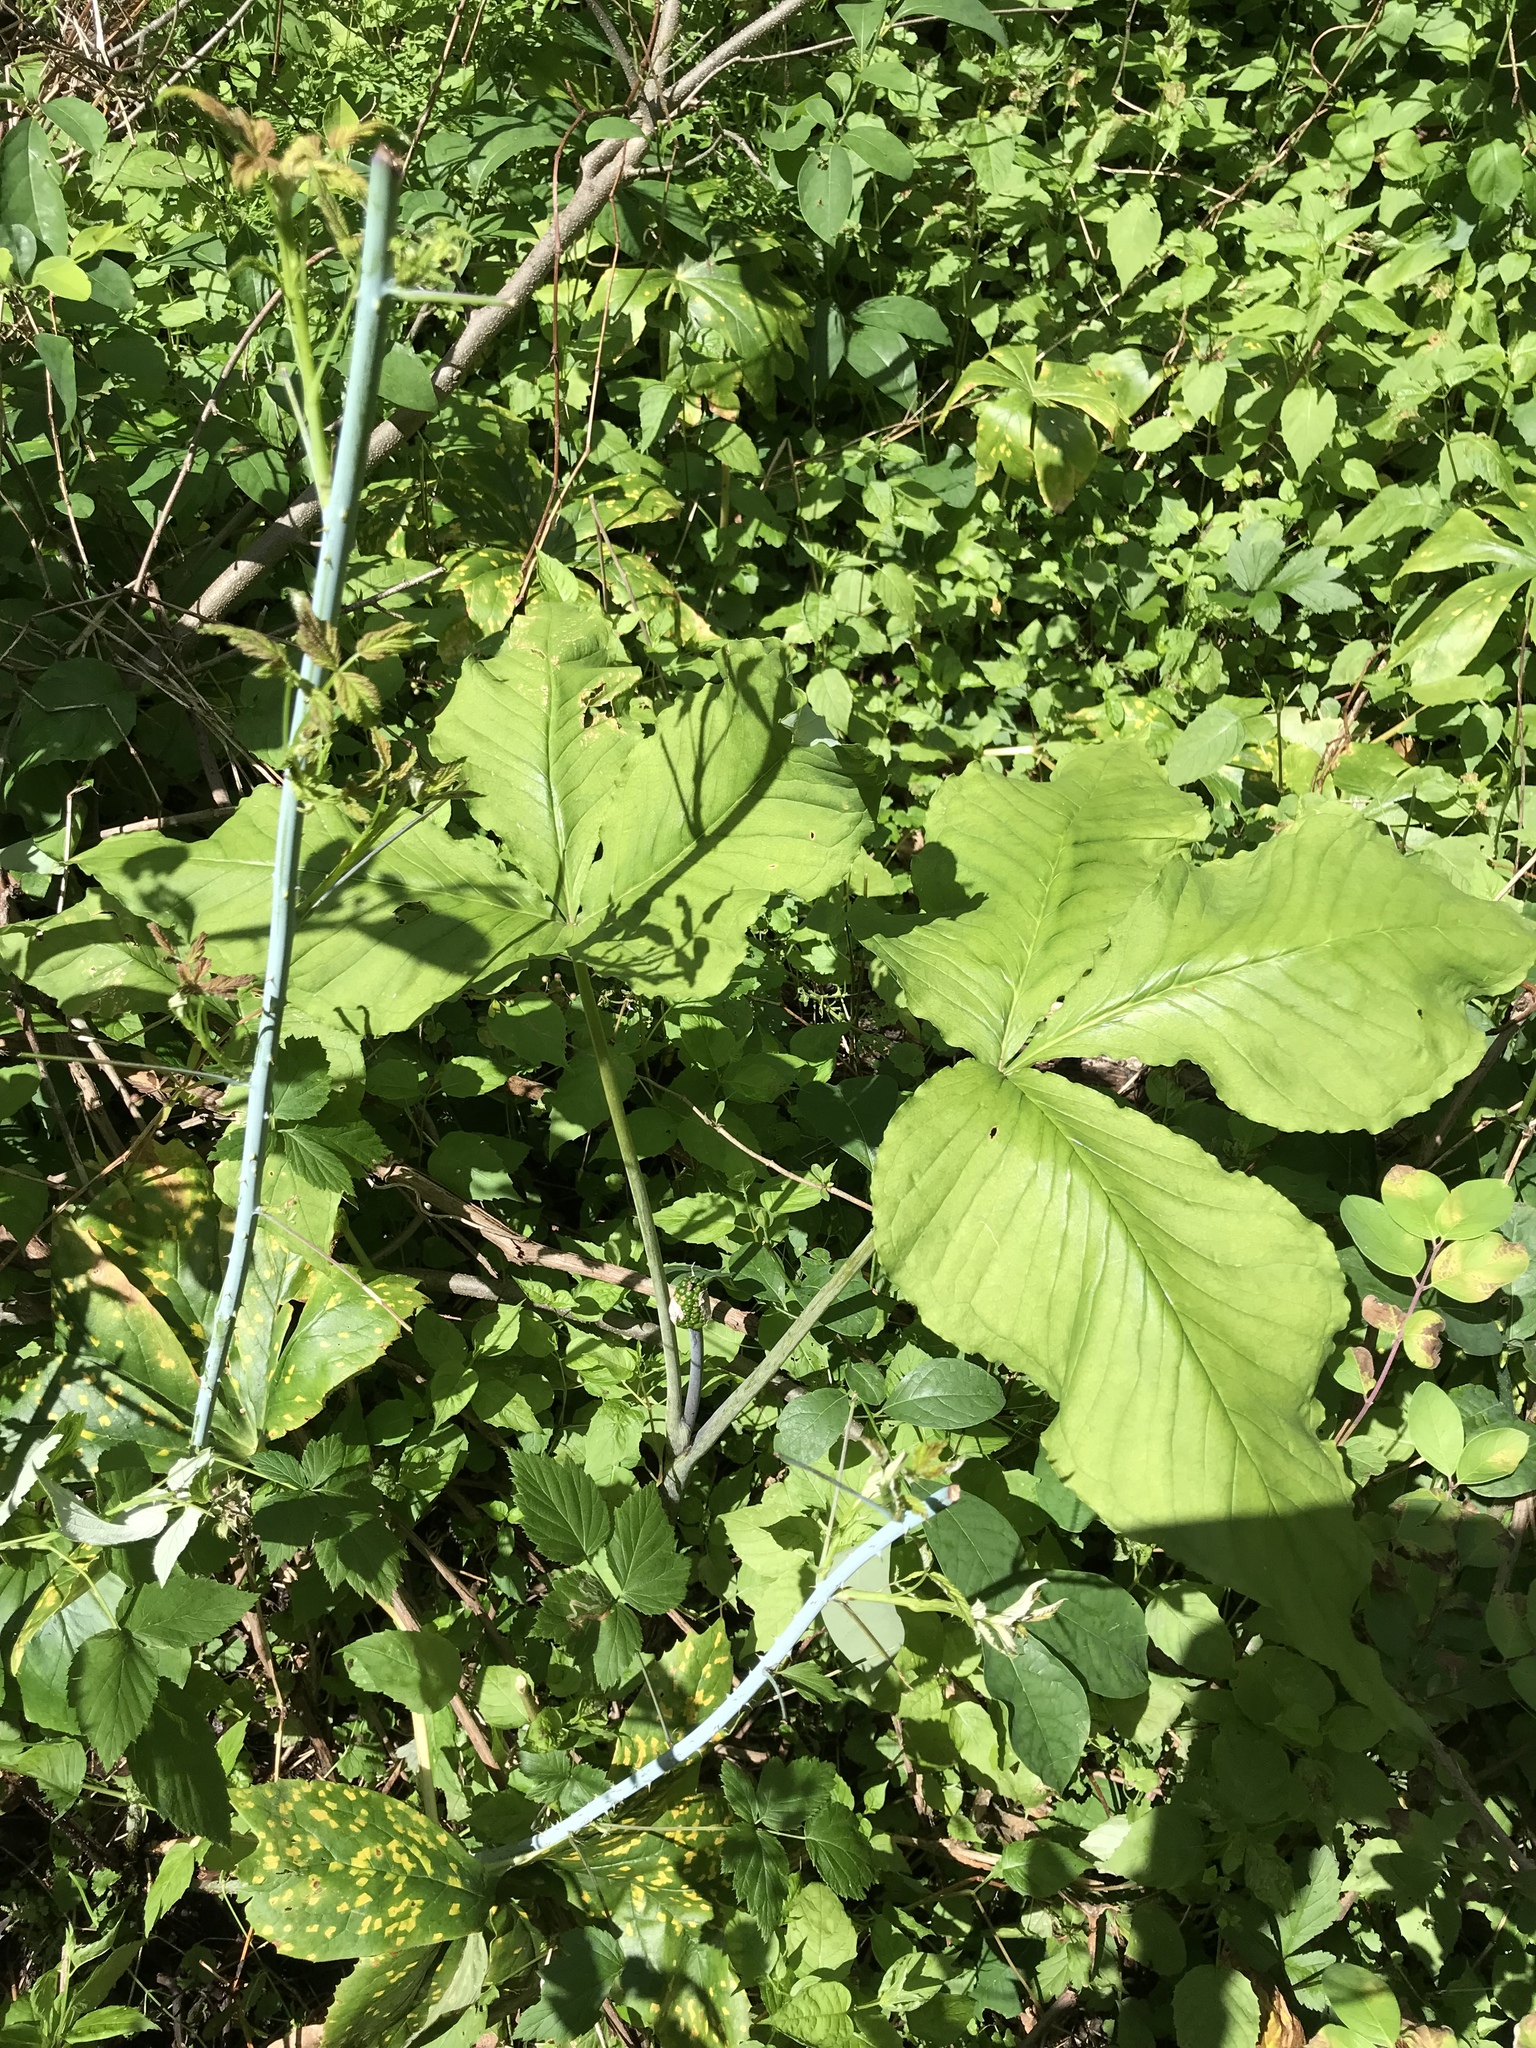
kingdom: Plantae
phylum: Tracheophyta
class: Liliopsida
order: Alismatales
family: Araceae
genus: Arisaema
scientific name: Arisaema triphyllum
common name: Jack-in-the-pulpit
